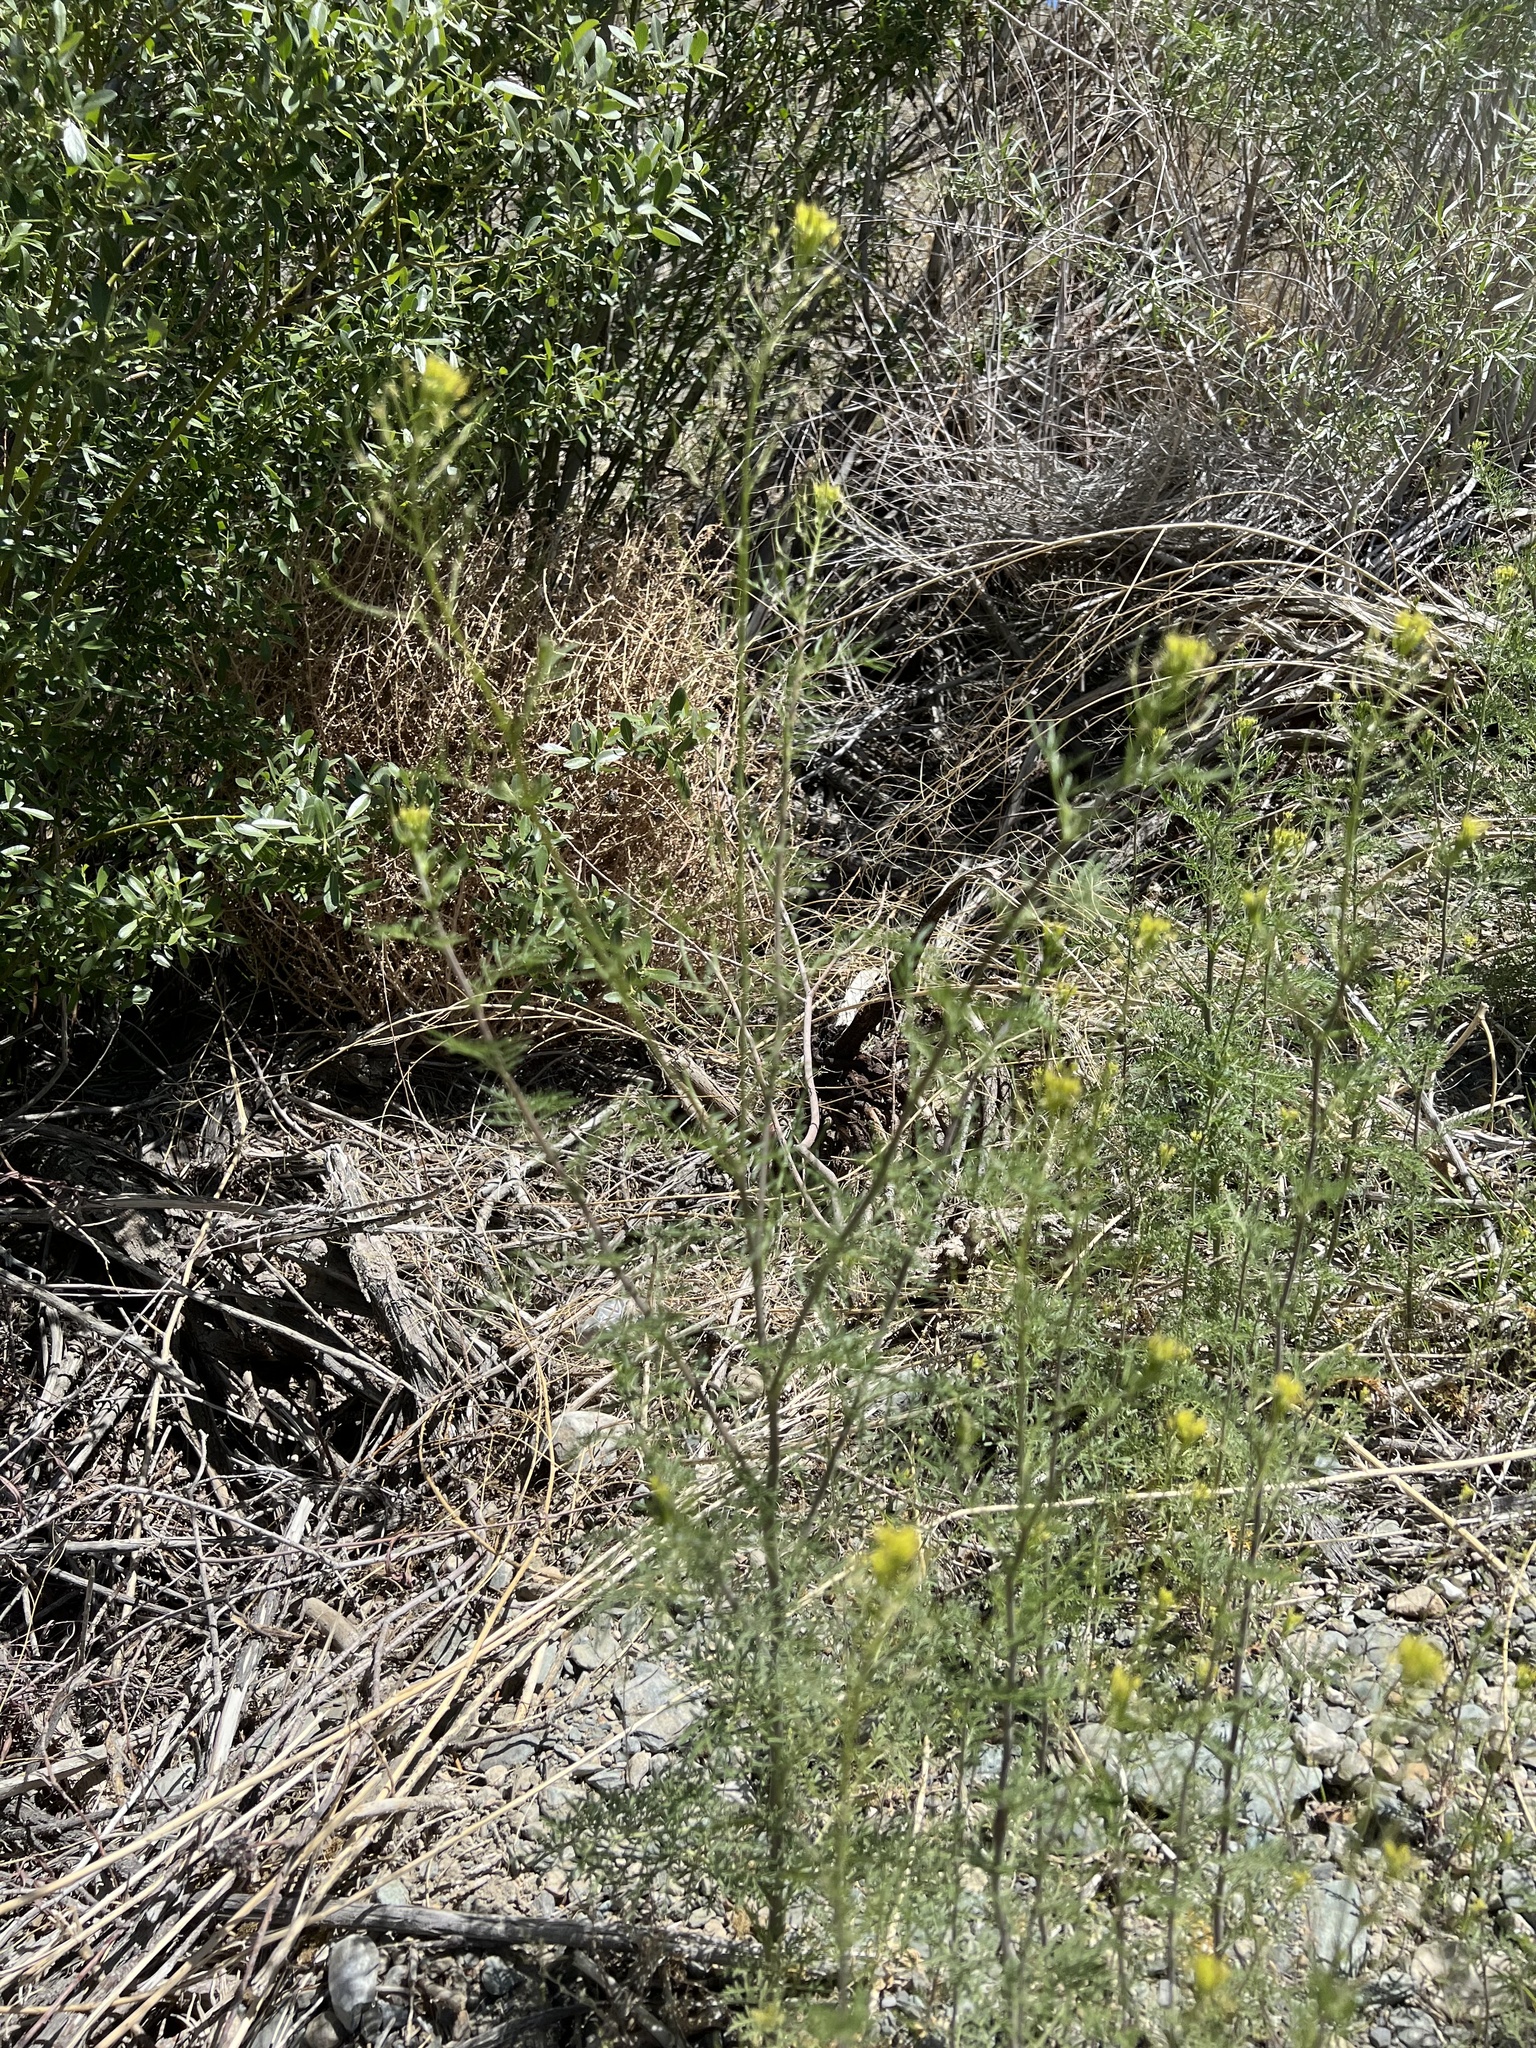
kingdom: Plantae
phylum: Tracheophyta
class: Magnoliopsida
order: Brassicales
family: Brassicaceae
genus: Descurainia
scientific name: Descurainia sophia
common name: Flixweed
